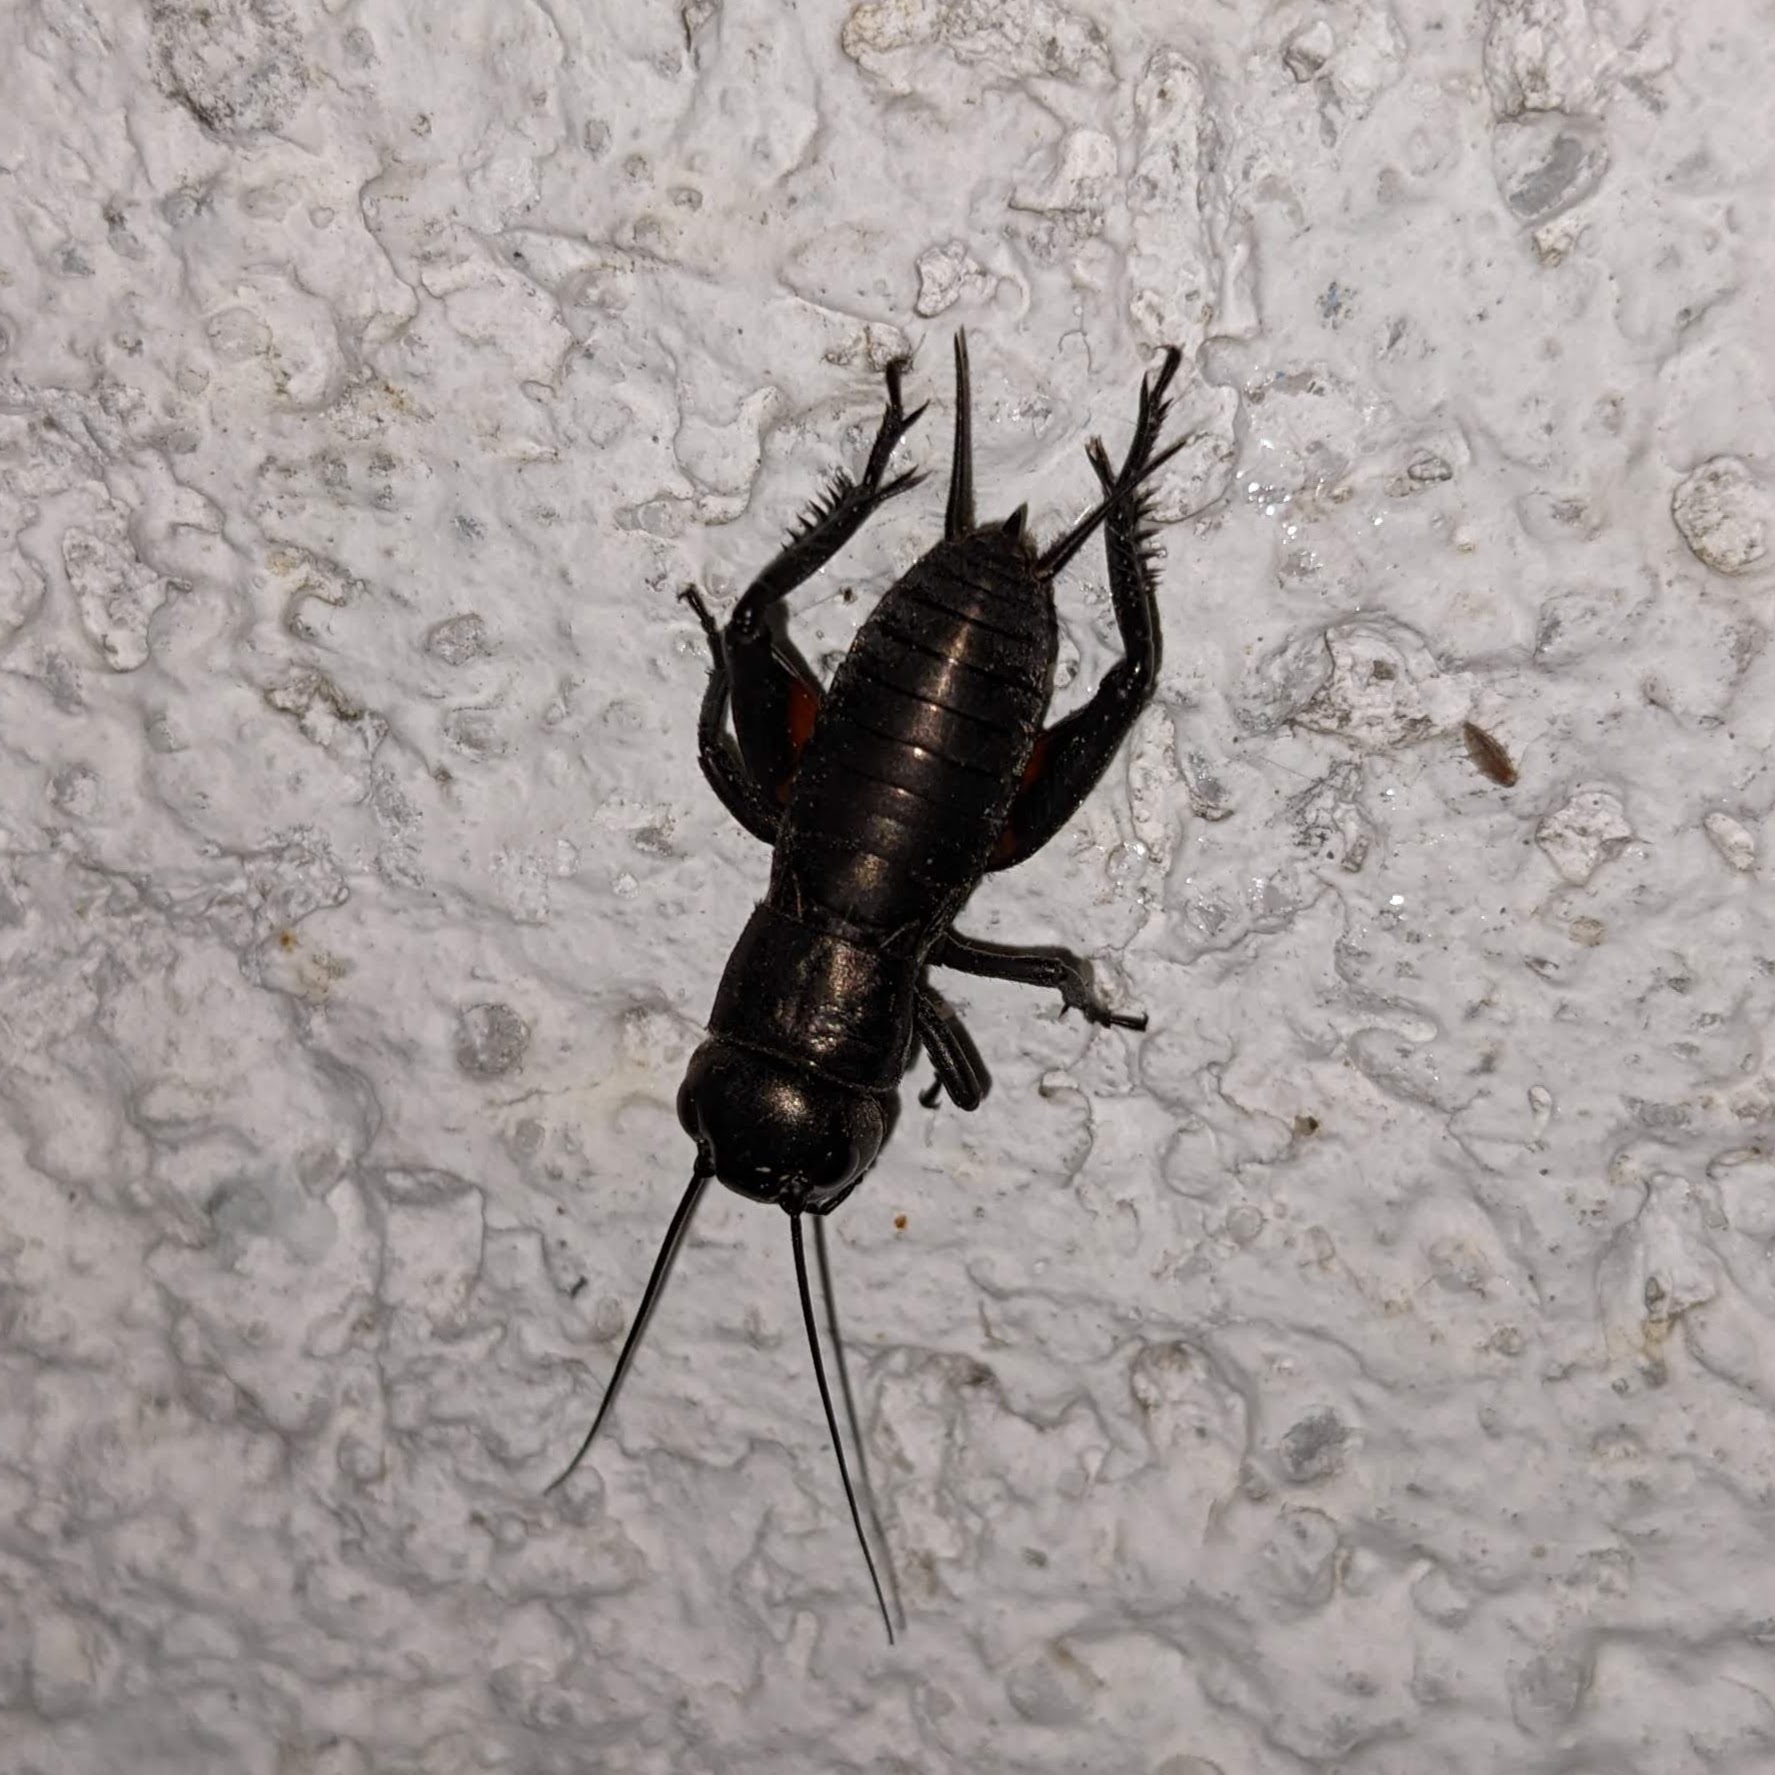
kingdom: Animalia
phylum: Arthropoda
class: Insecta
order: Orthoptera
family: Gryllidae
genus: Gryllus
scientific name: Gryllus campestris
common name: Field cricket
